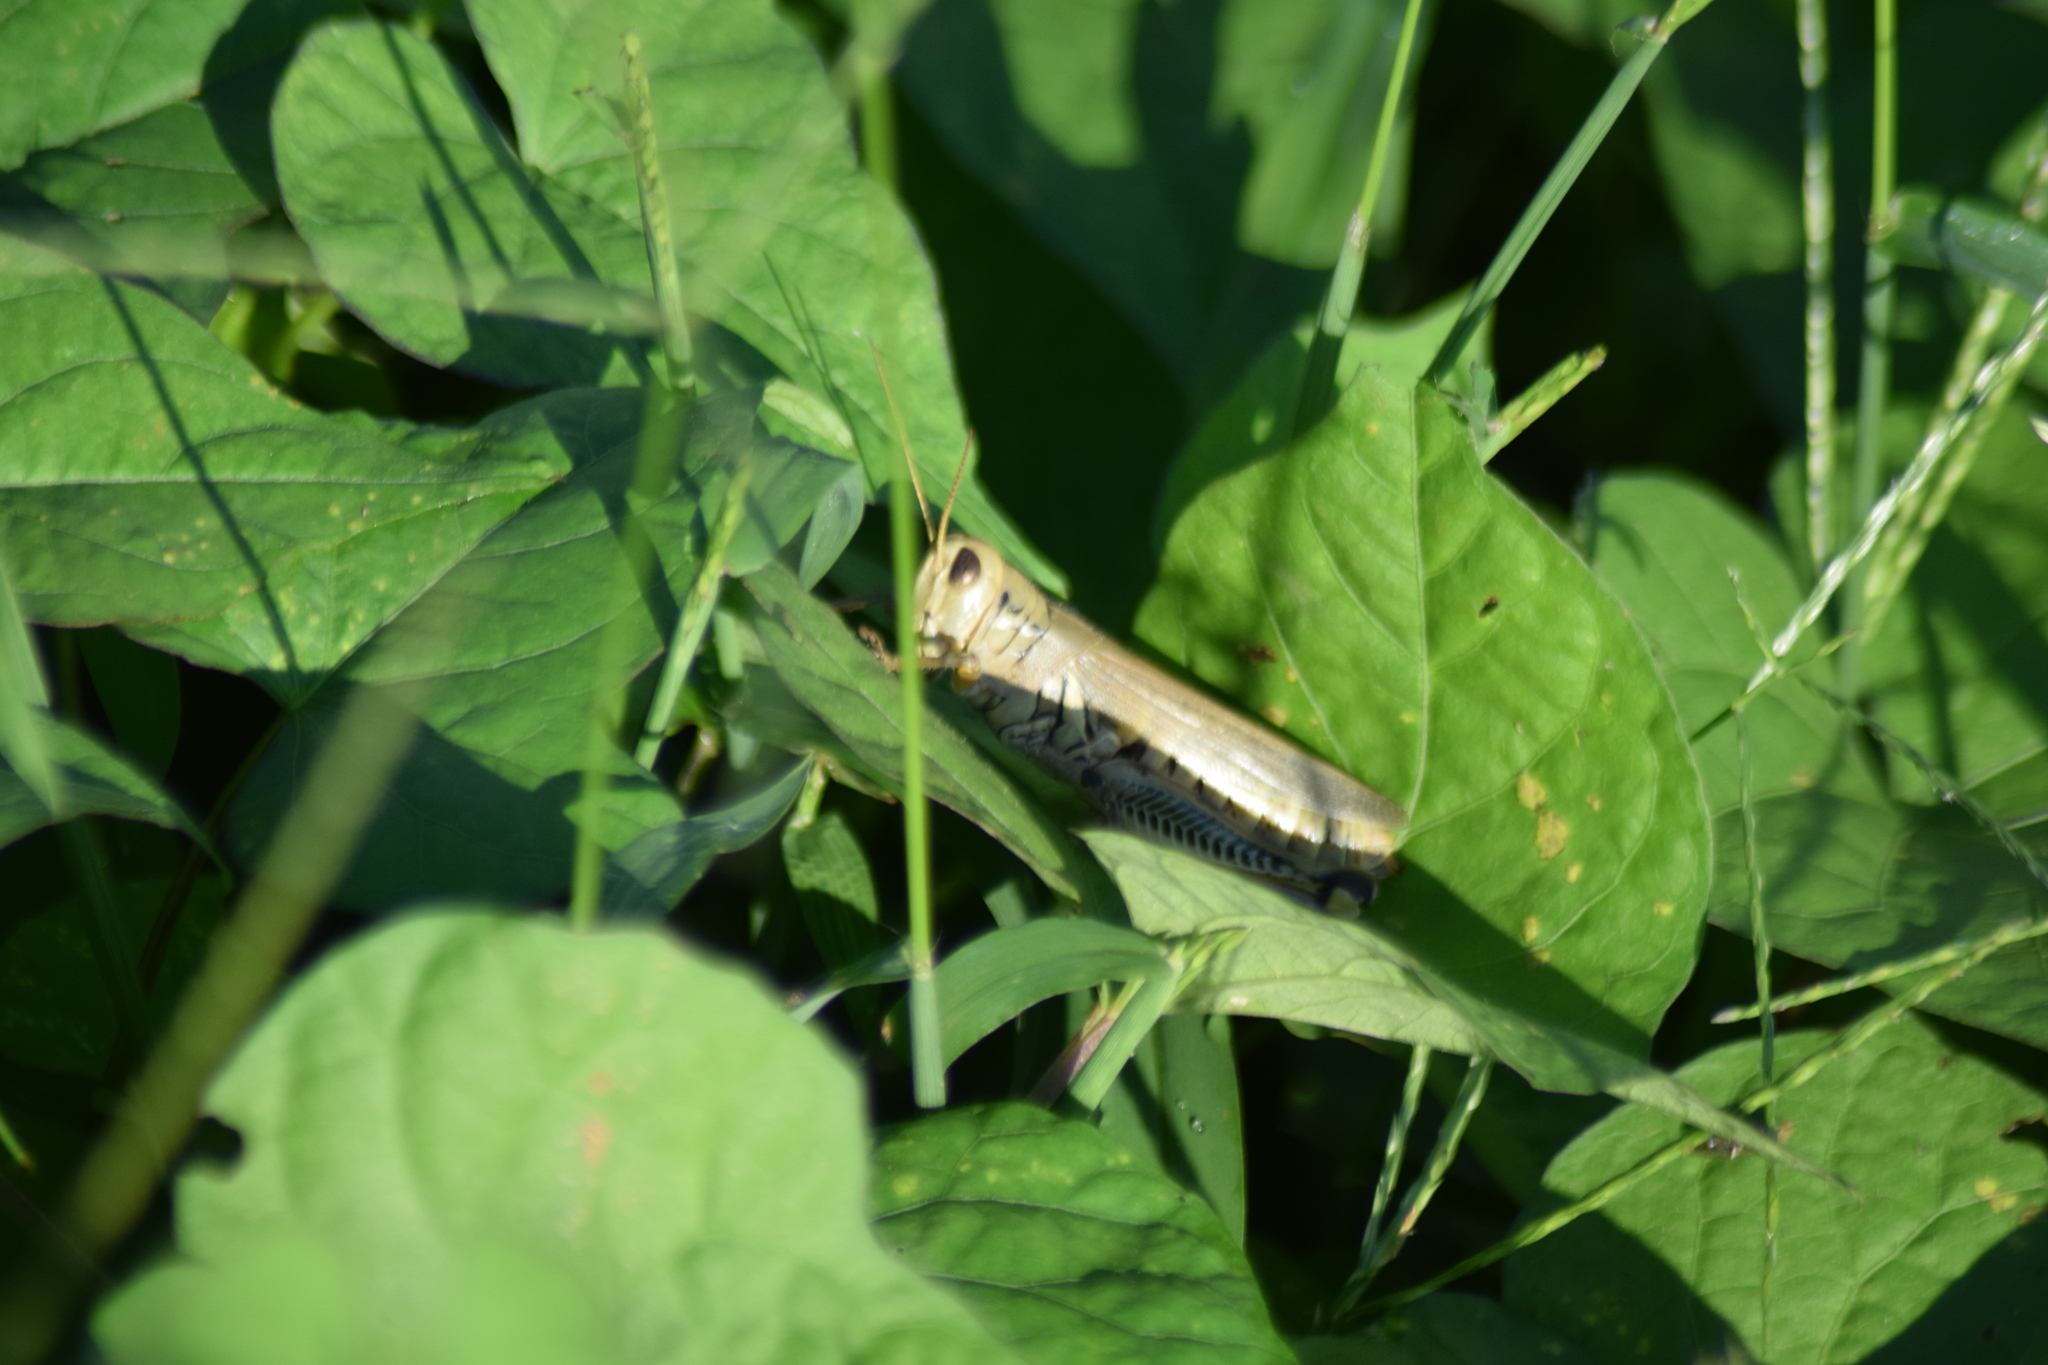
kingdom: Animalia
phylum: Arthropoda
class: Insecta
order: Orthoptera
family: Acrididae
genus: Melanoplus
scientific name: Melanoplus differentialis
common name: Differential grasshopper
